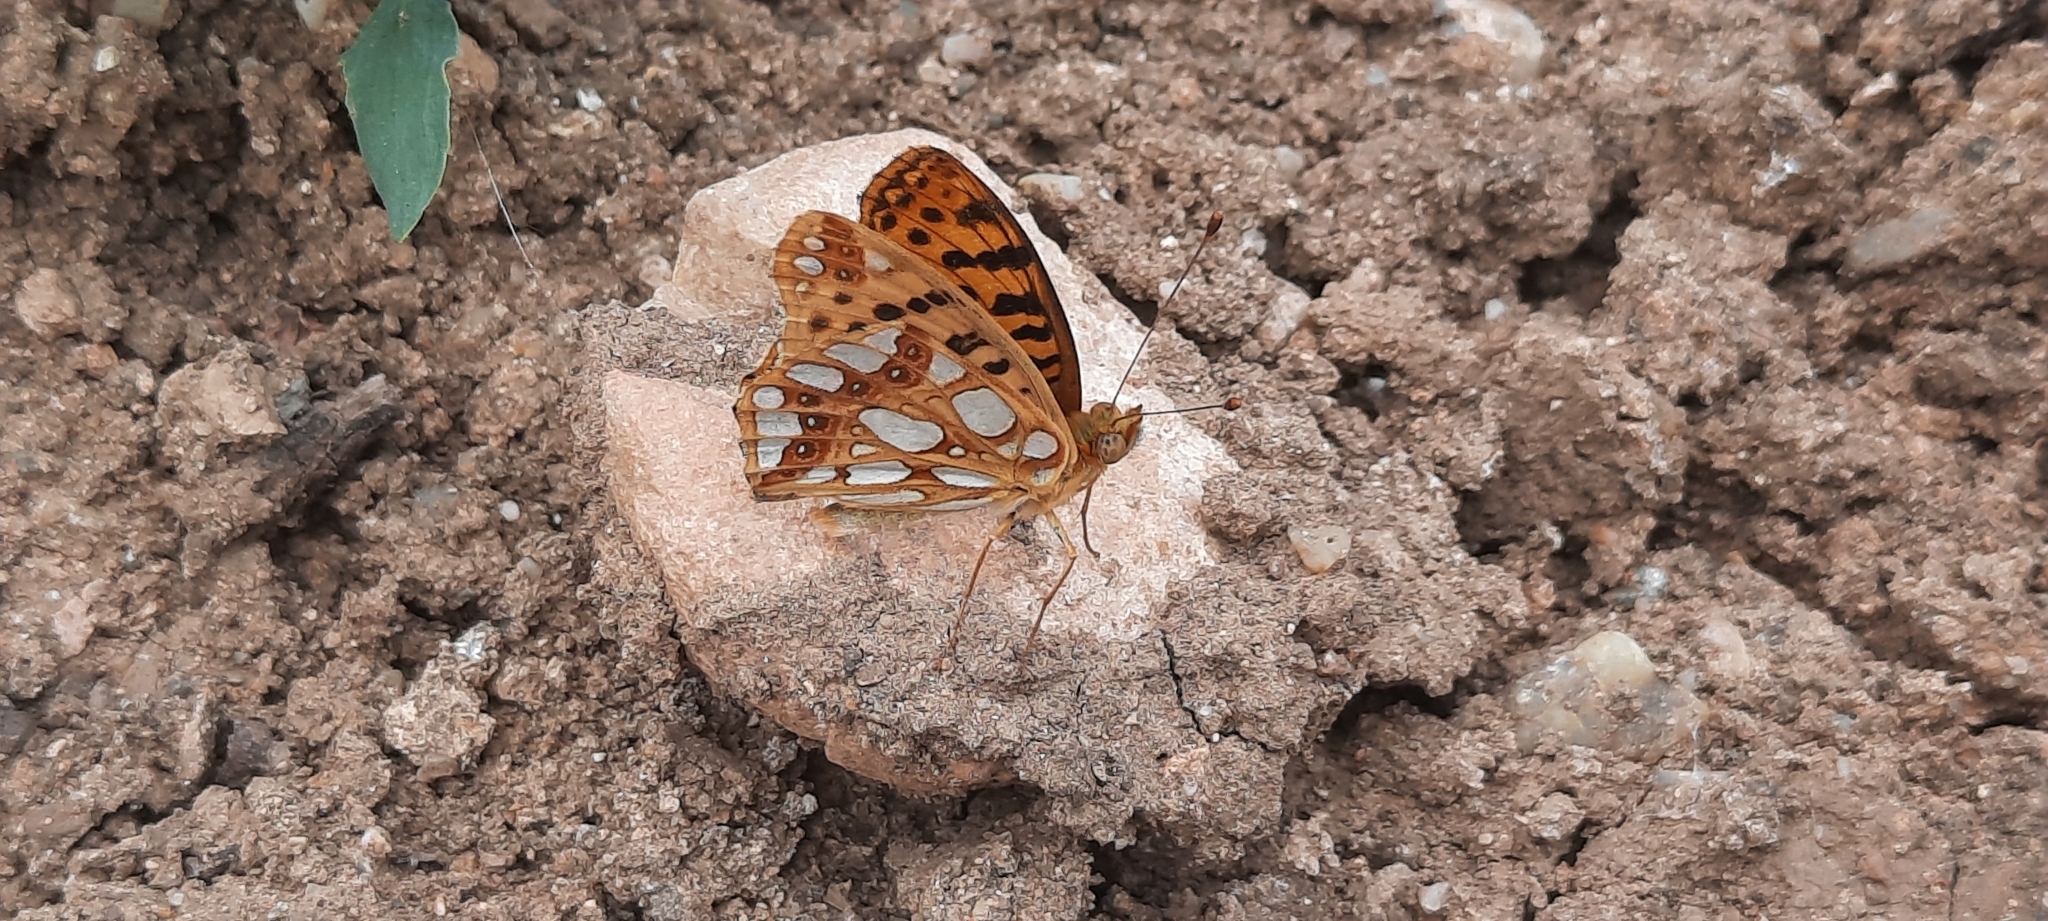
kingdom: Animalia
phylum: Arthropoda
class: Insecta
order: Lepidoptera
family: Nymphalidae
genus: Issoria
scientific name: Issoria lathonia
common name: Queen of spain fritillary
